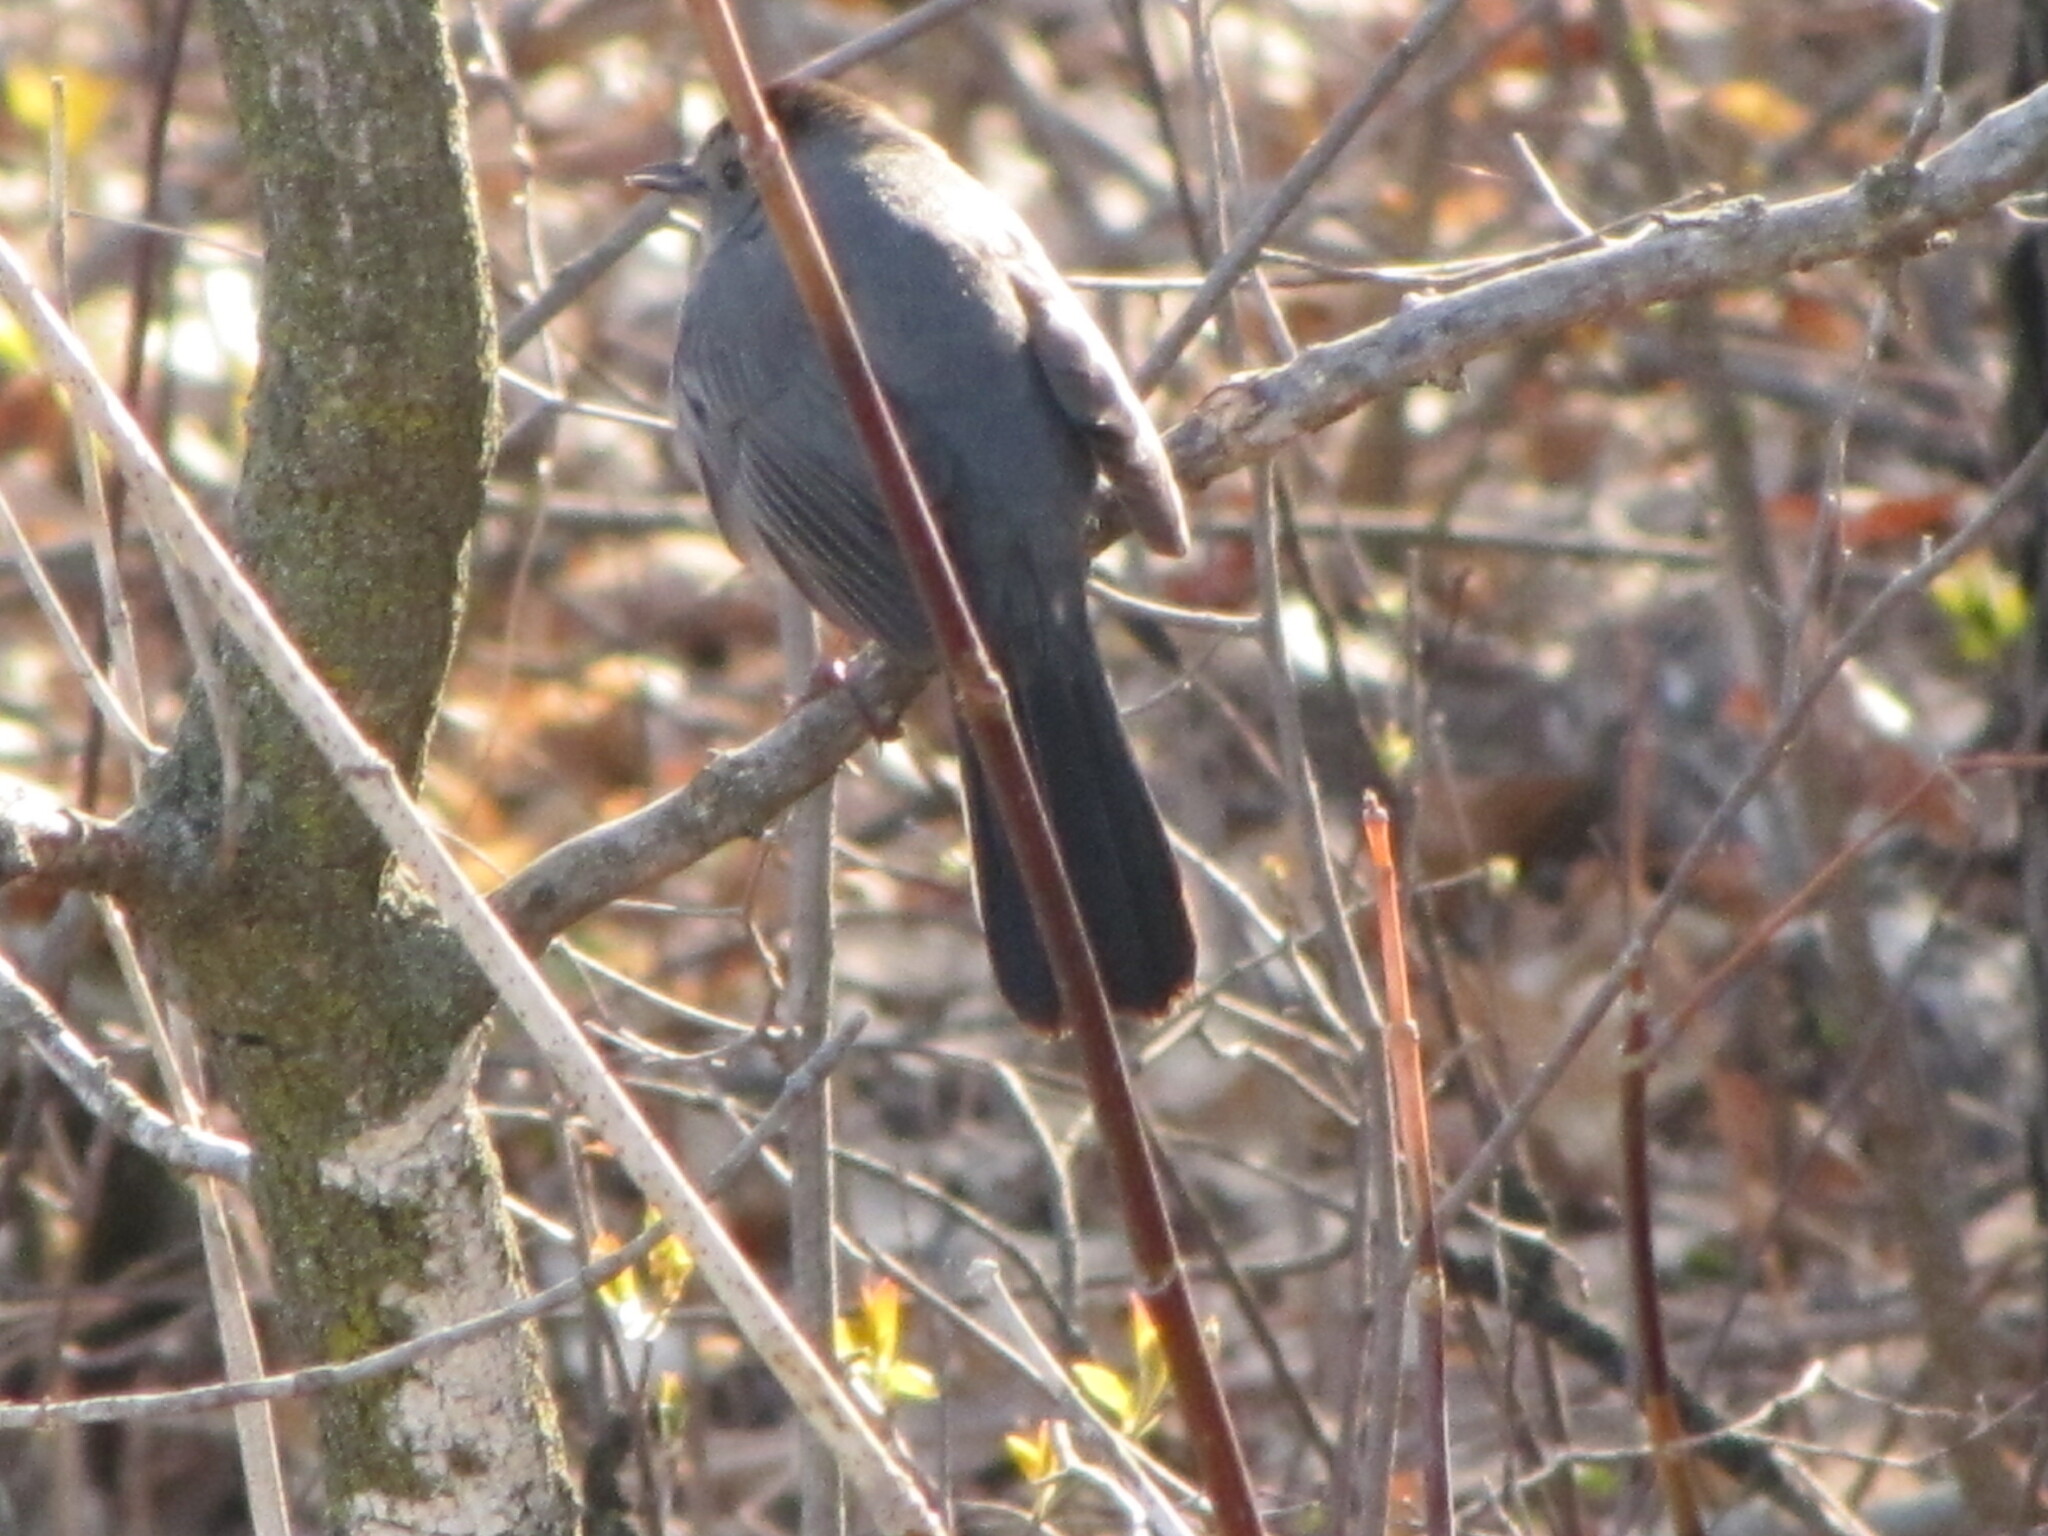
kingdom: Animalia
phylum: Chordata
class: Aves
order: Passeriformes
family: Mimidae
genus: Dumetella
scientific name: Dumetella carolinensis
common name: Gray catbird
